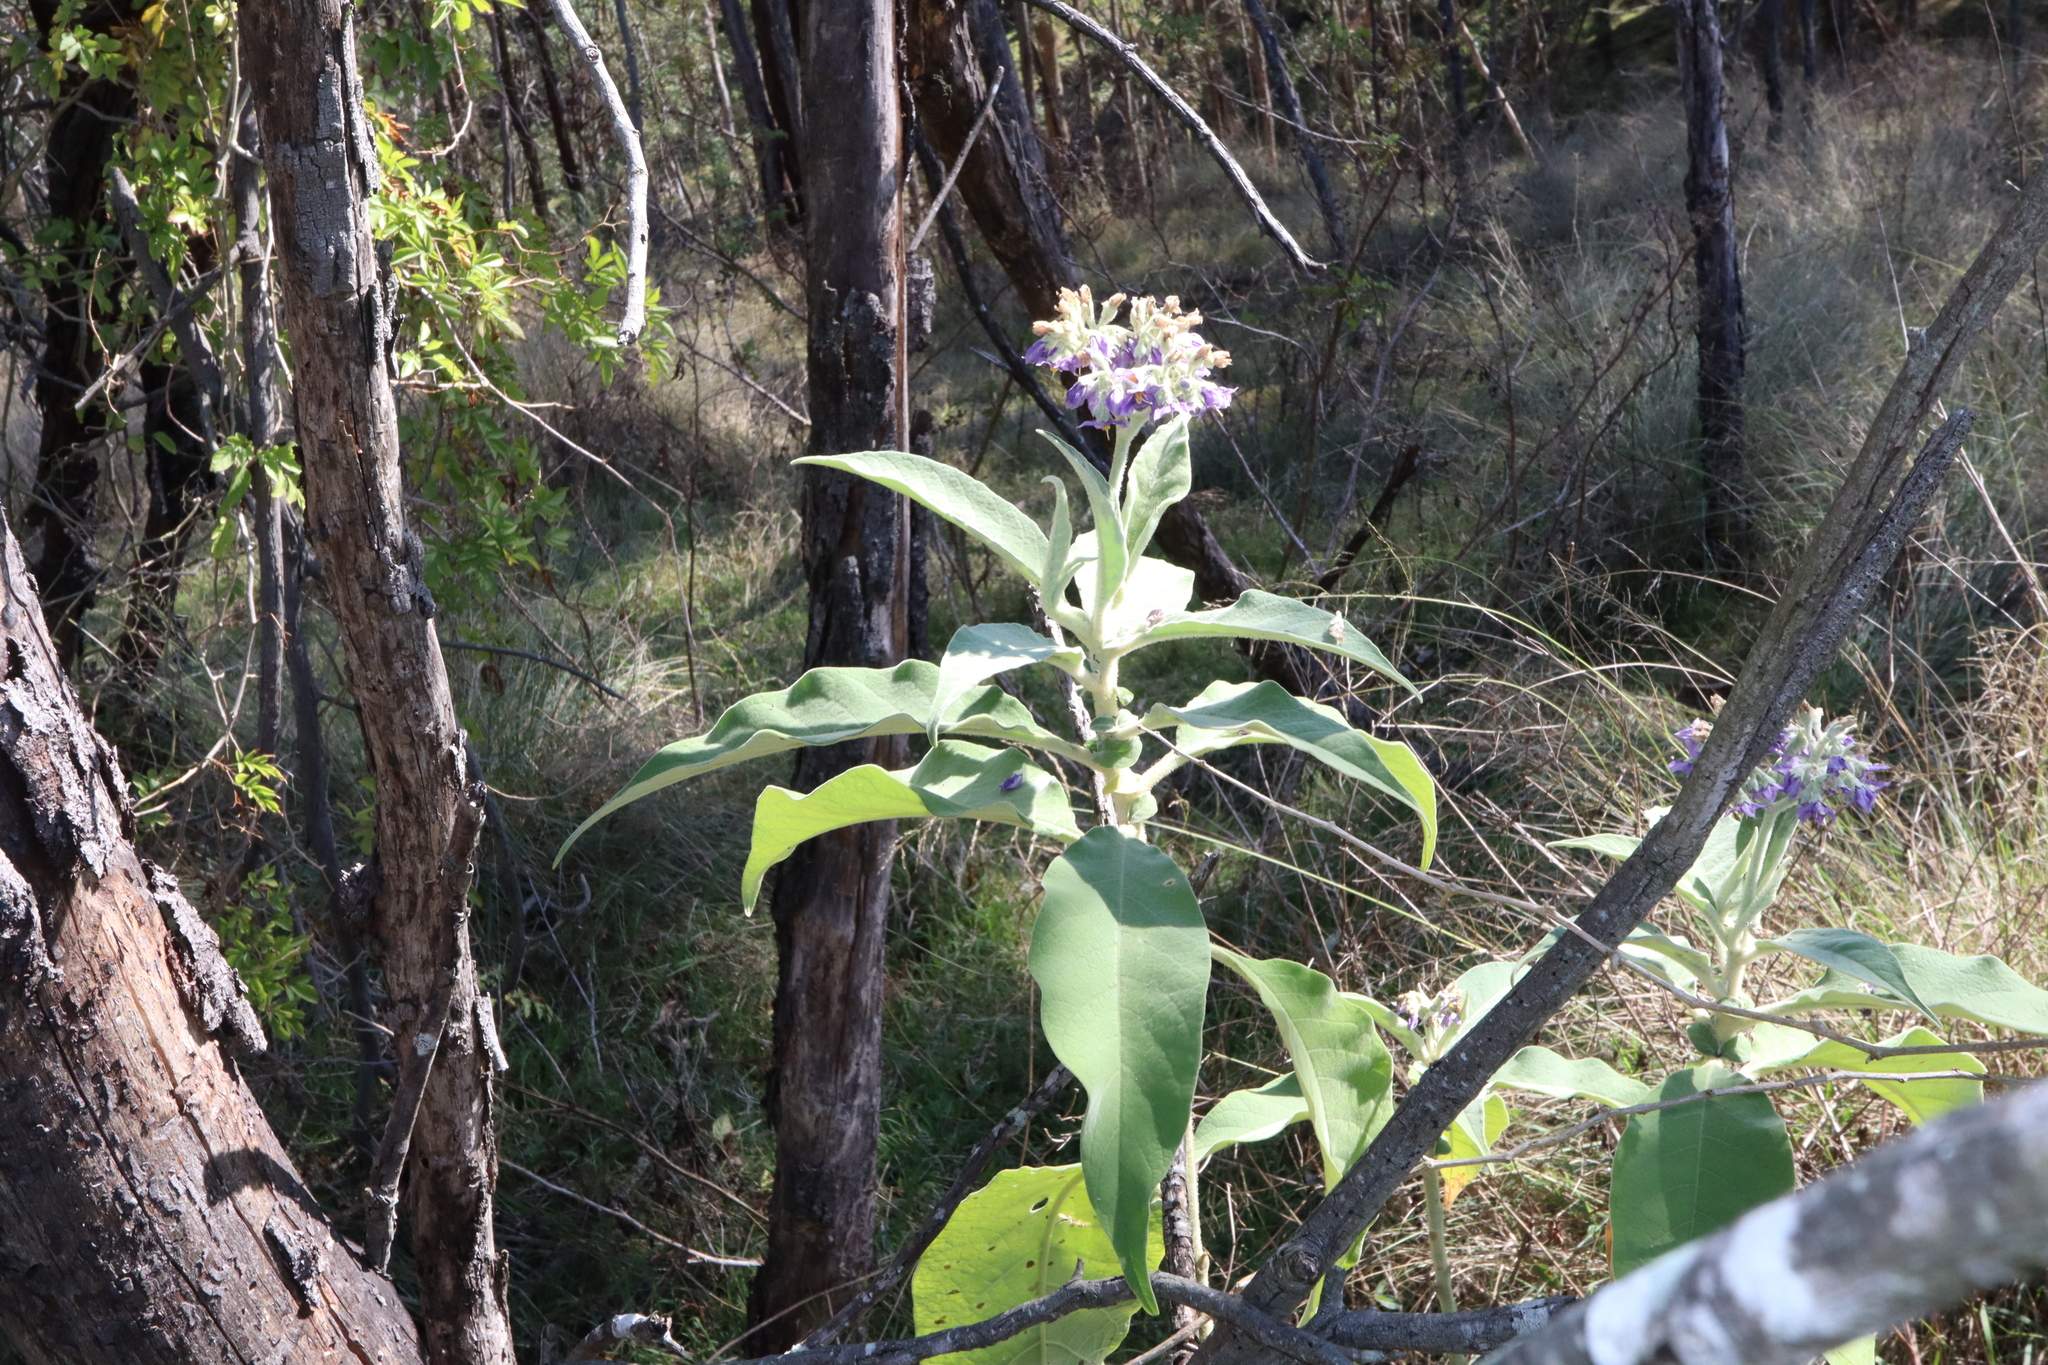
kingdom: Plantae
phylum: Tracheophyta
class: Magnoliopsida
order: Solanales
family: Solanaceae
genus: Solanum
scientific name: Solanum mauritianum
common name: Earleaf nightshade
